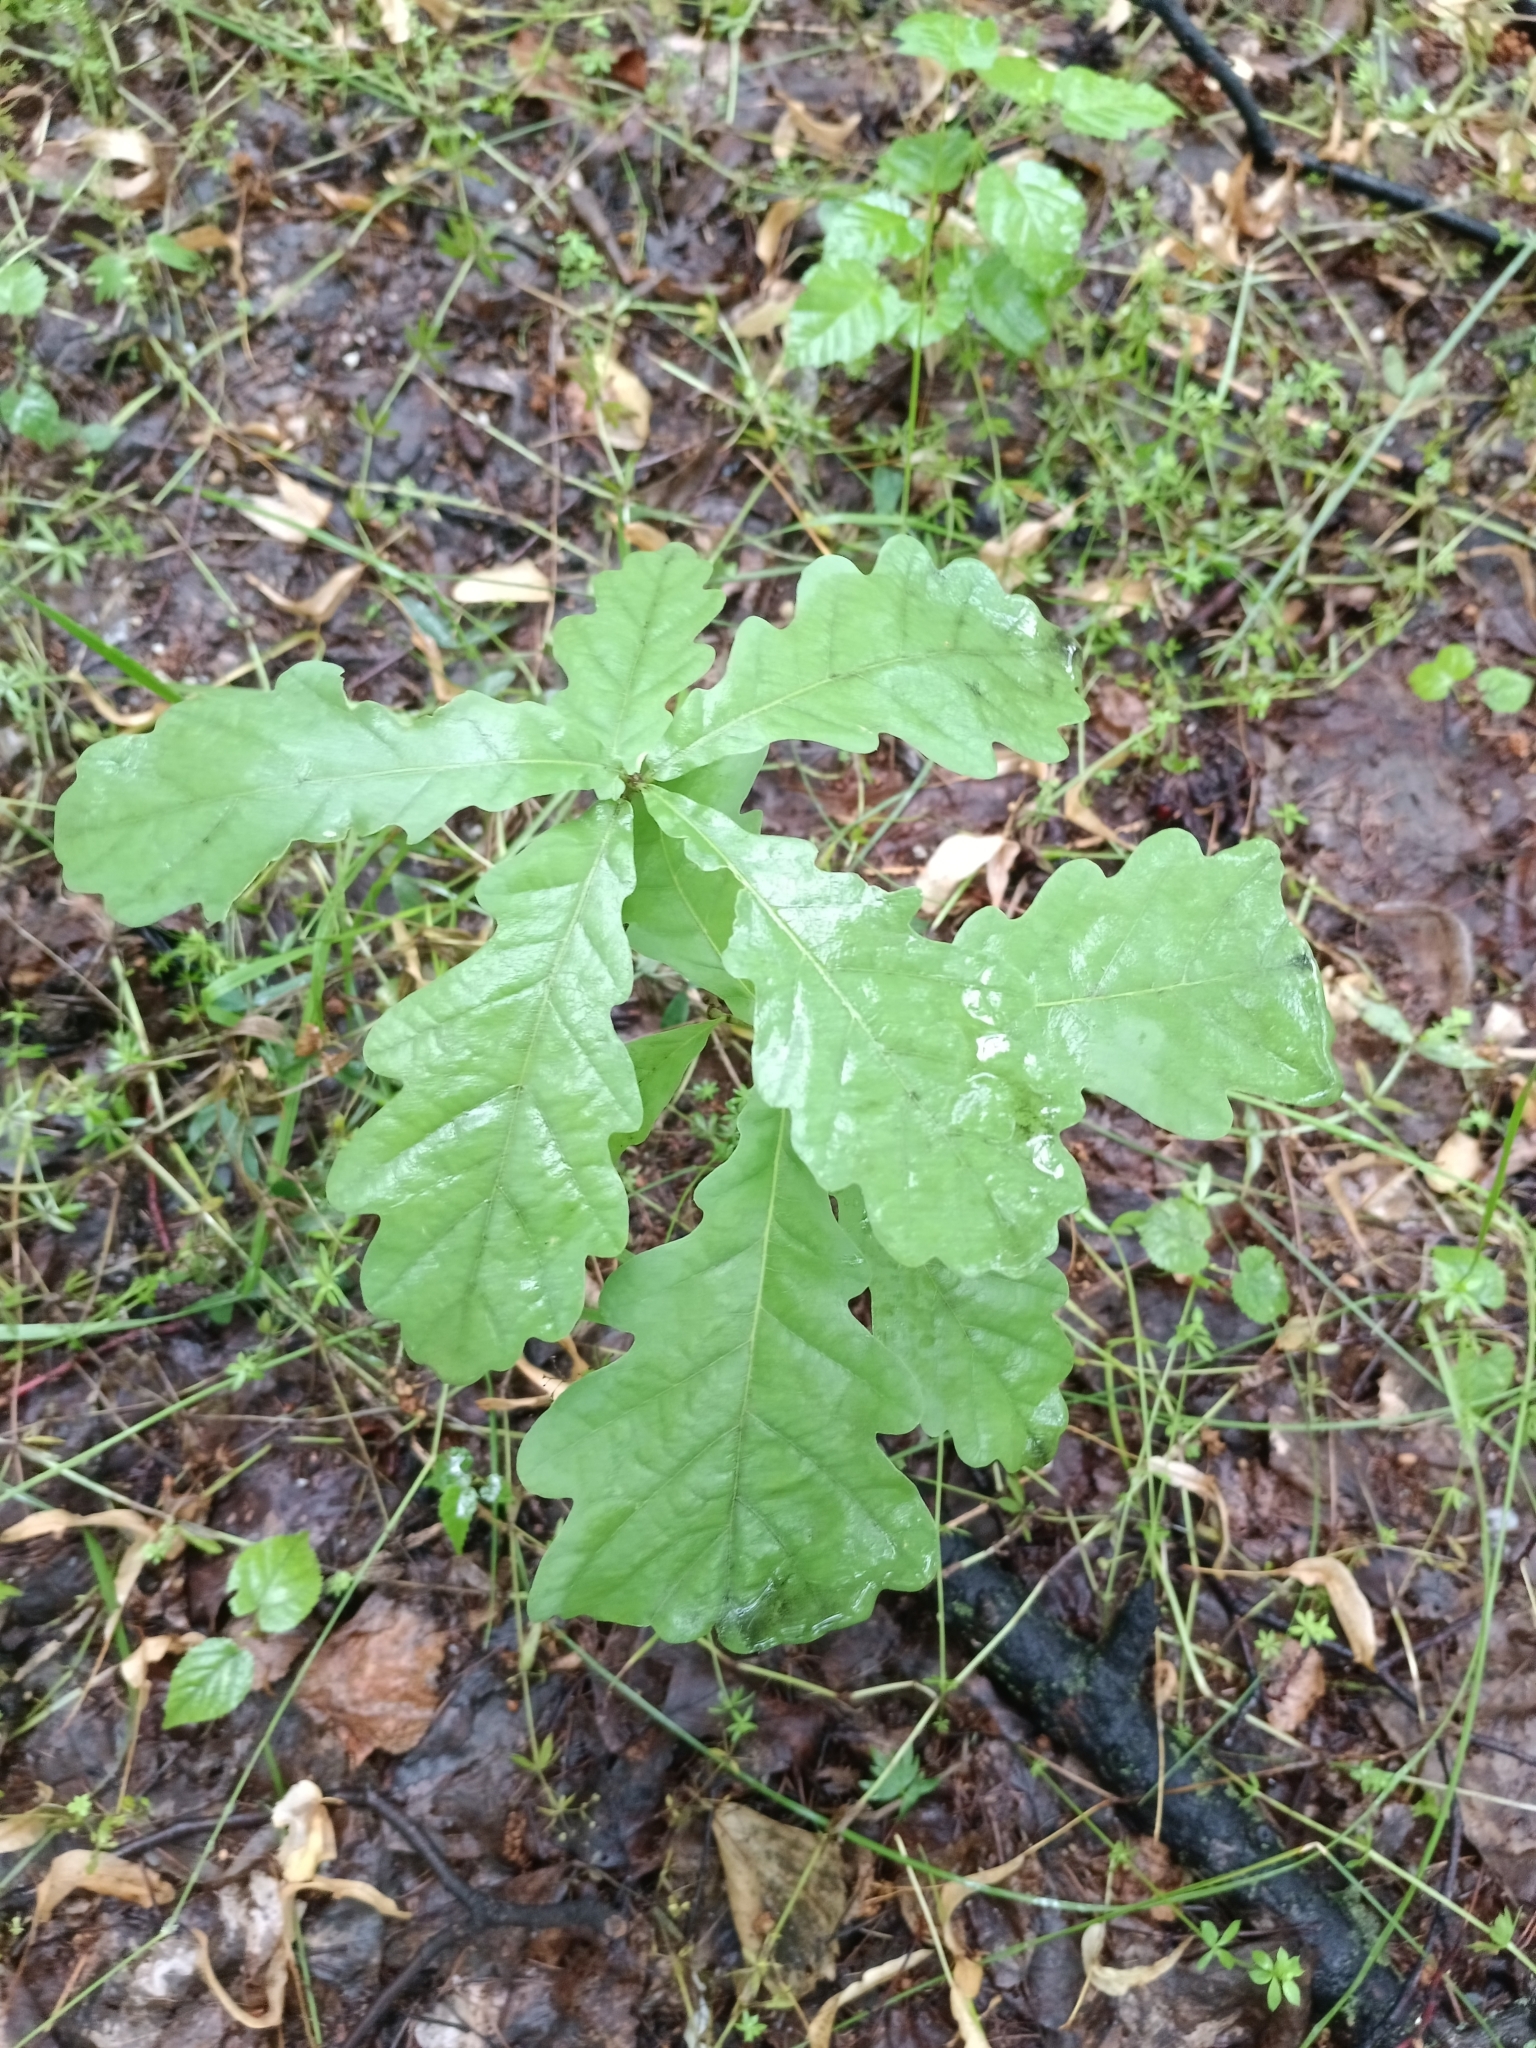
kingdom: Plantae
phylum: Tracheophyta
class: Magnoliopsida
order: Fagales
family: Fagaceae
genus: Quercus
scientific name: Quercus robur
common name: Pedunculate oak
